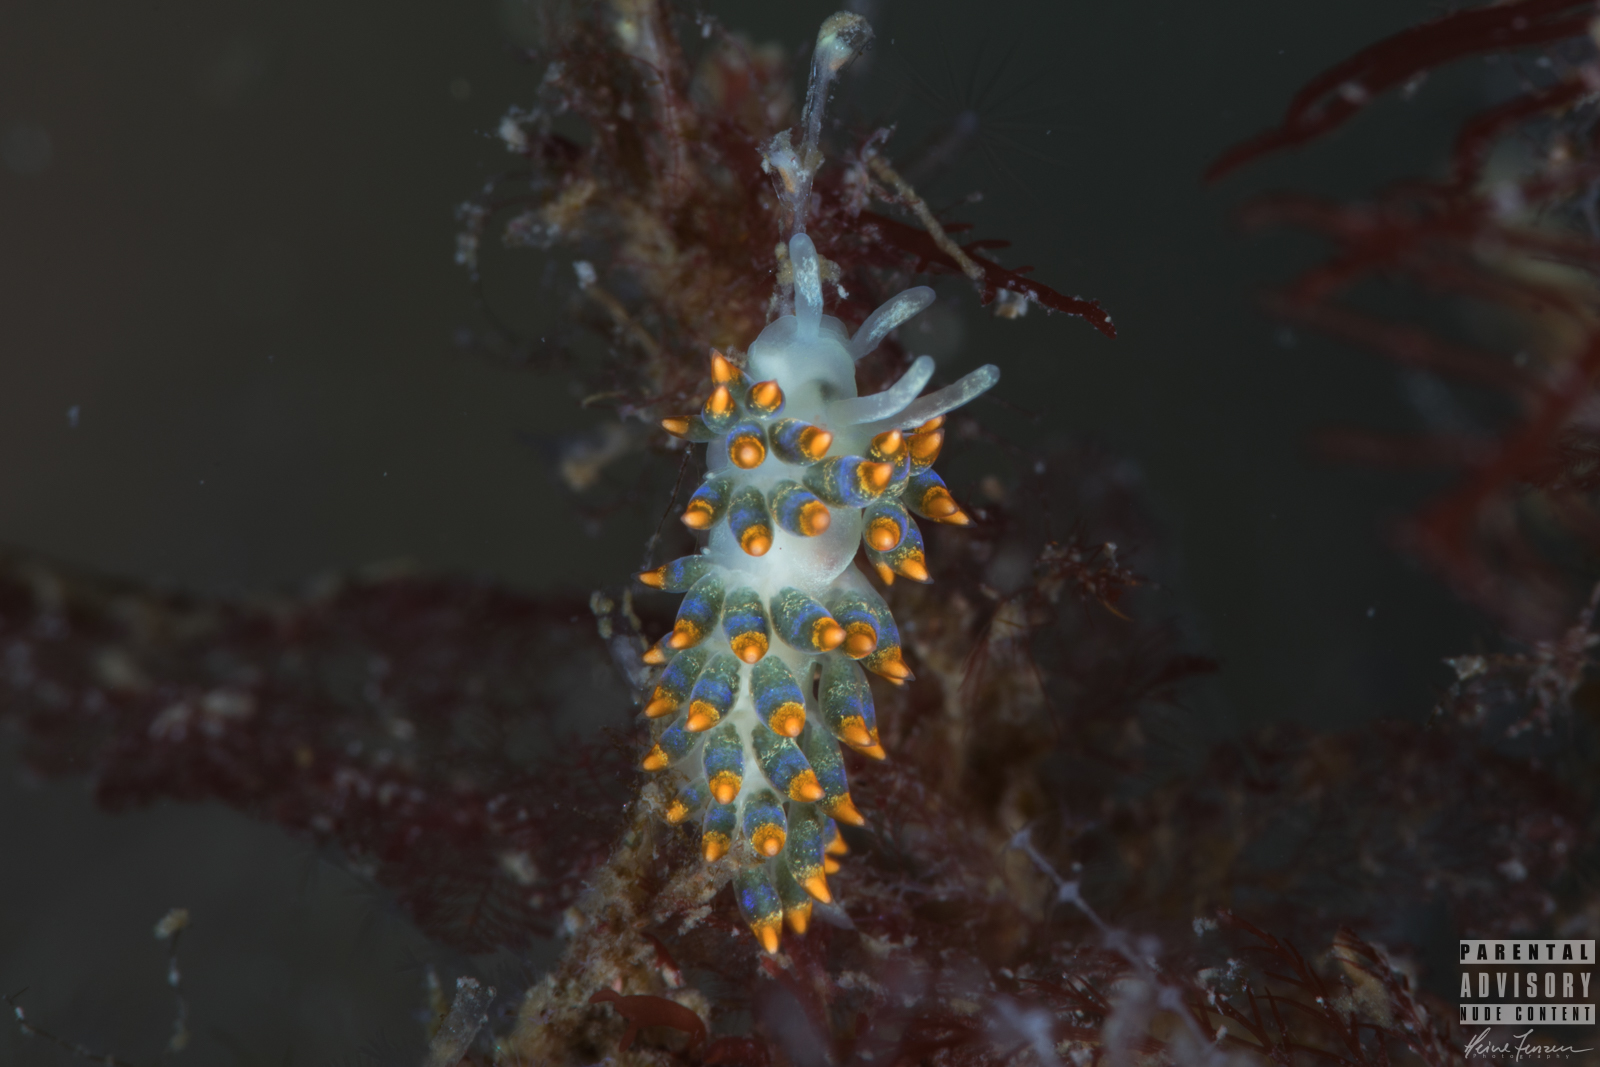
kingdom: Animalia
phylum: Mollusca
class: Gastropoda
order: Nudibranchia
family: Trinchesiidae
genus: Trinchesia
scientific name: Trinchesia cuanensis
